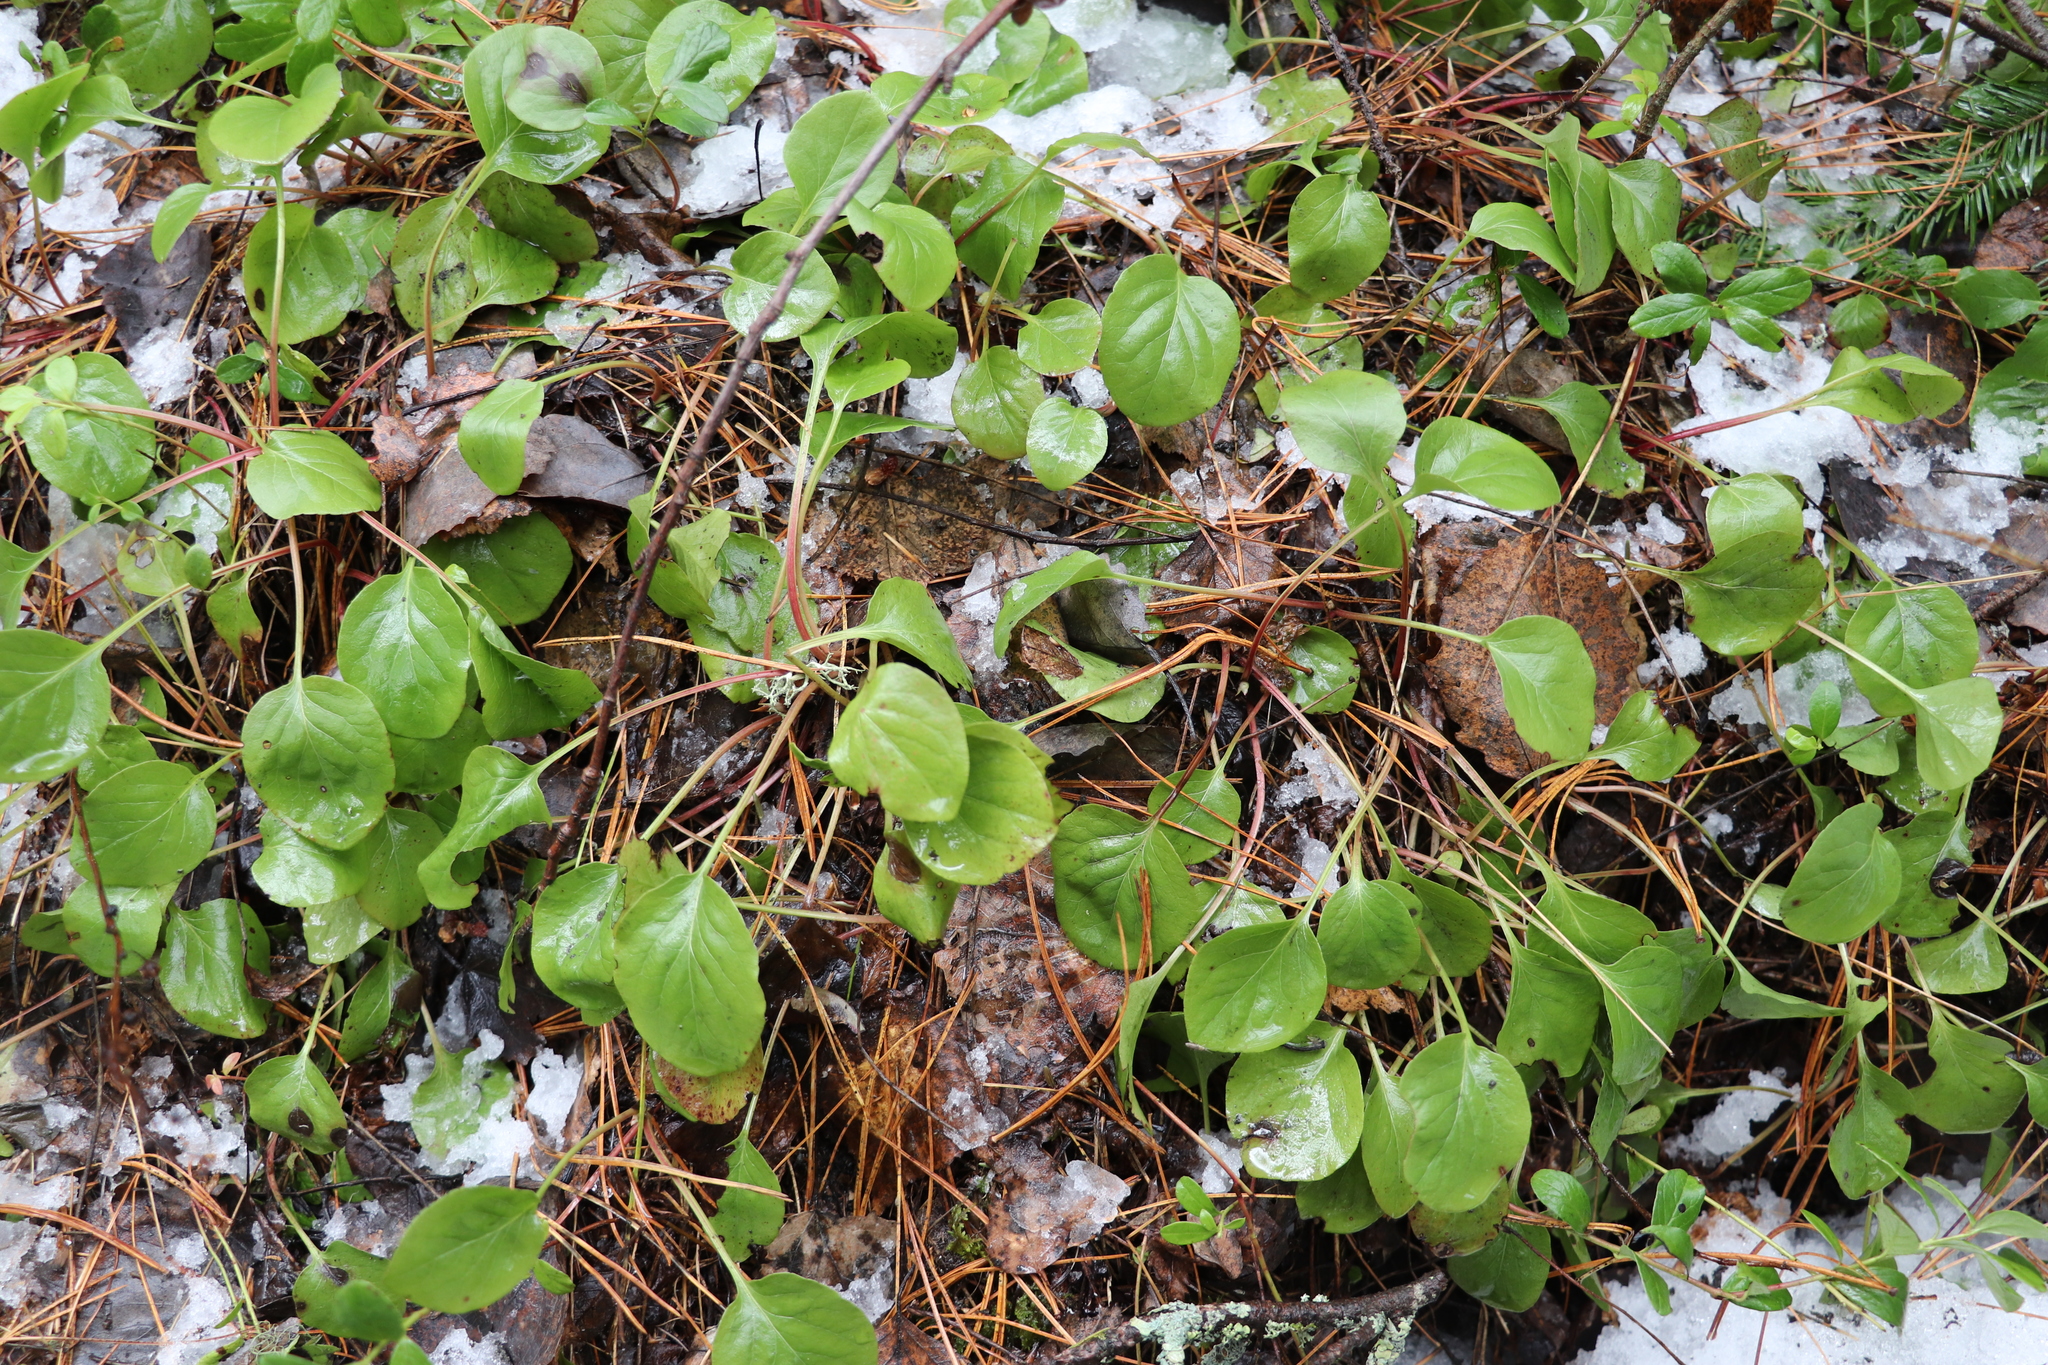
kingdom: Plantae
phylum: Tracheophyta
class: Magnoliopsida
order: Ericales
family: Ericaceae
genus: Pyrola
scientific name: Pyrola
